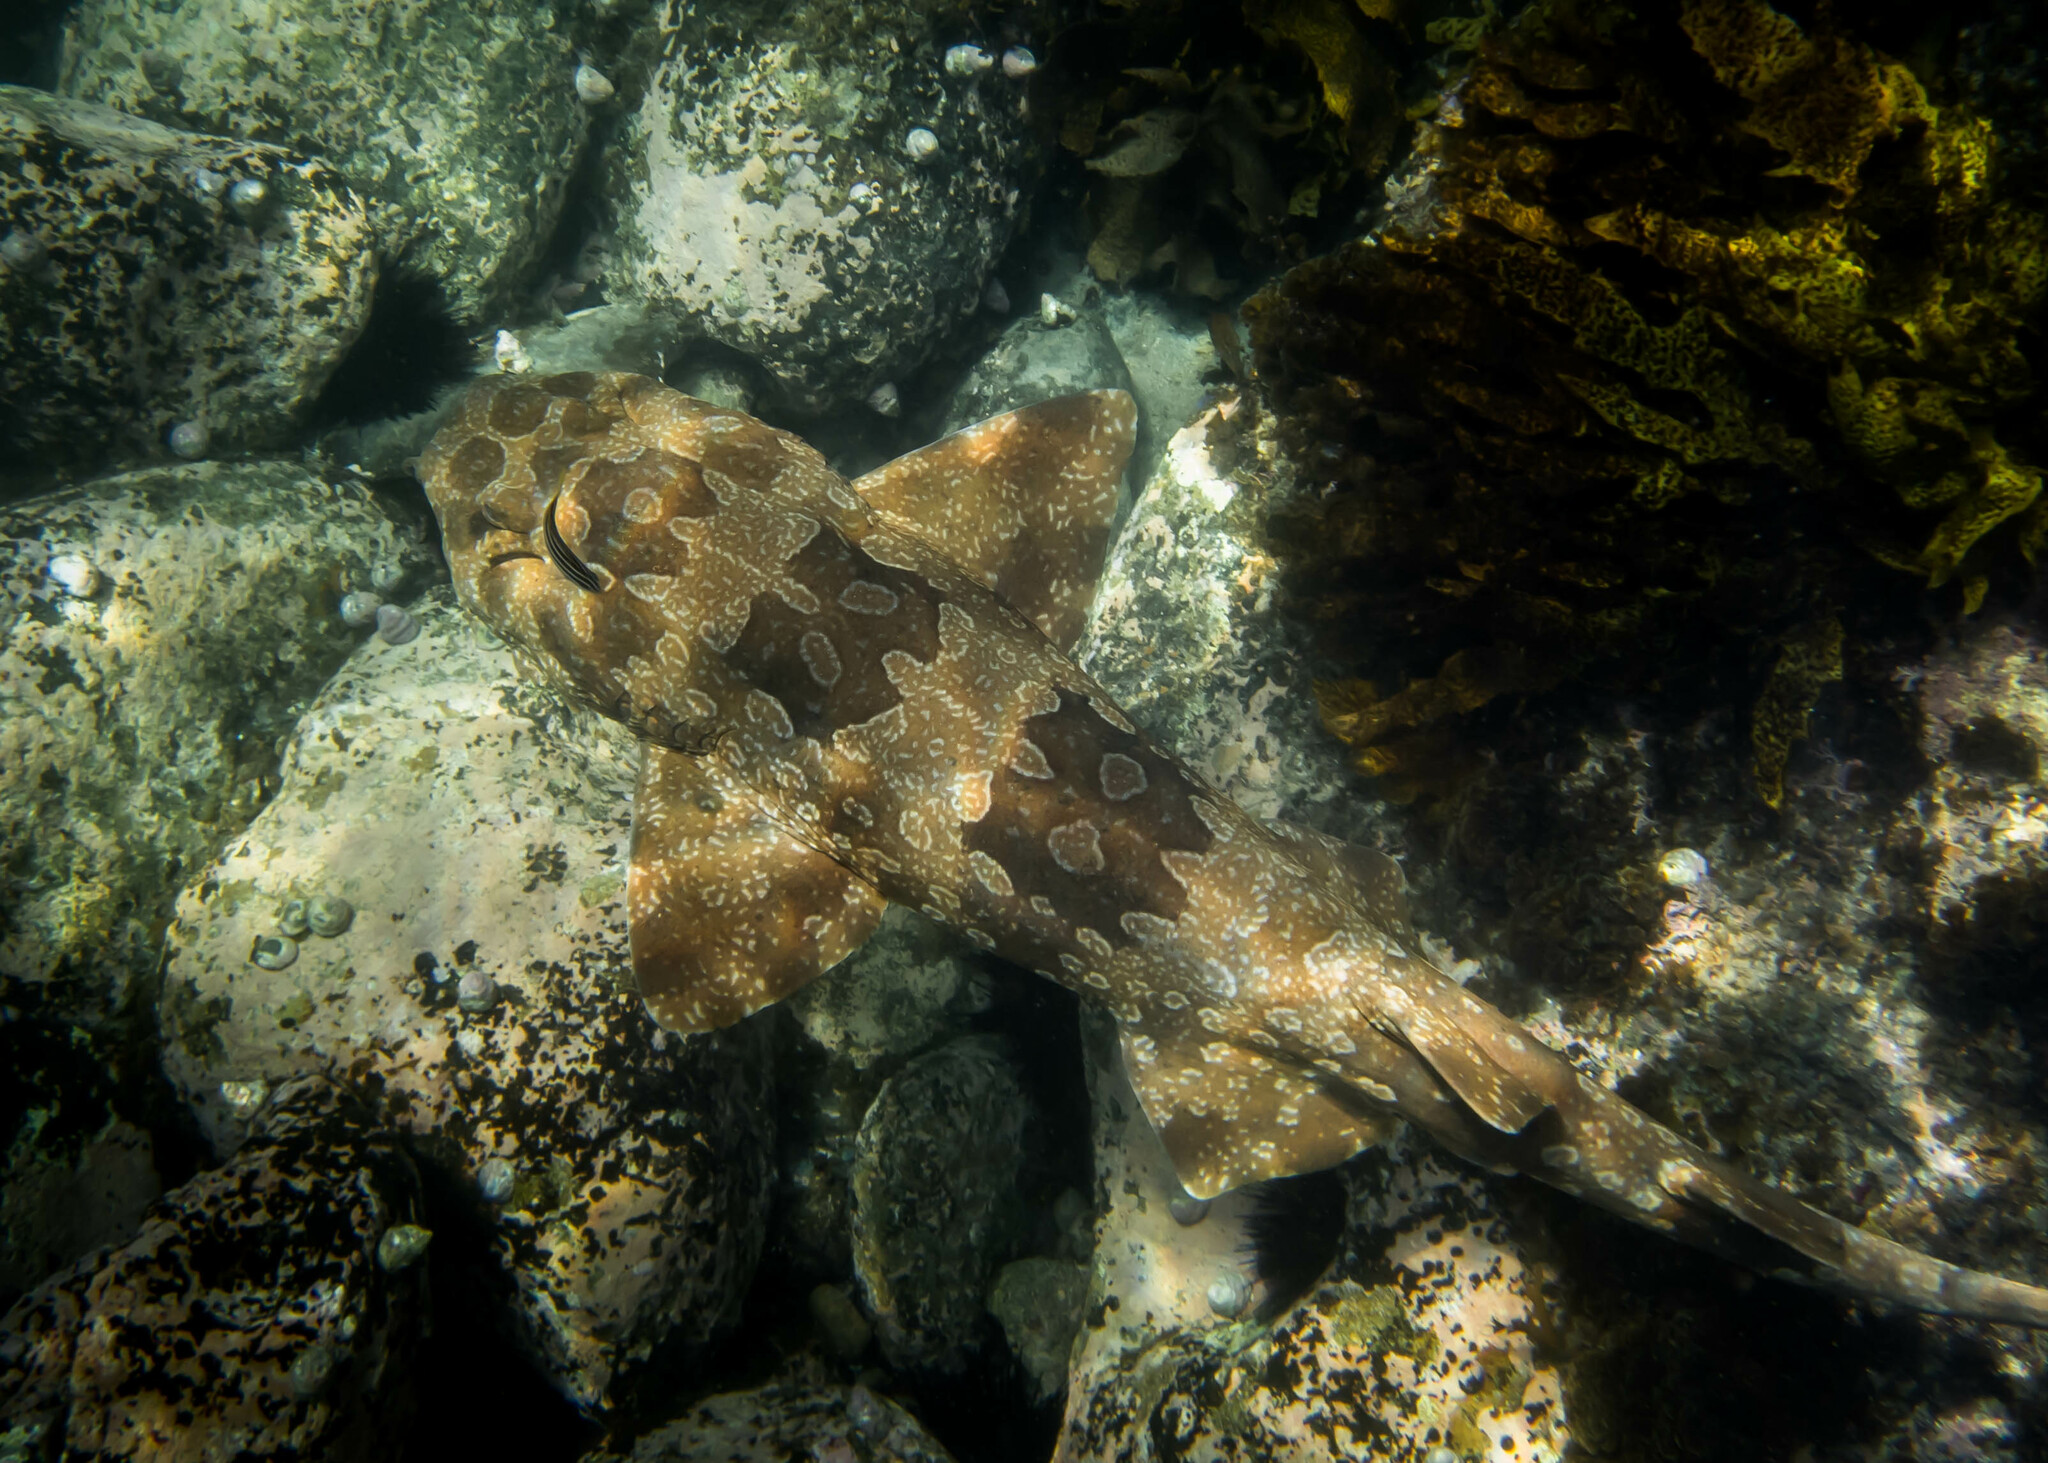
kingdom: Animalia
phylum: Chordata
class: Elasmobranchii
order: Orectolobiformes
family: Orectolobidae
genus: Orectolobus
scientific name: Orectolobus maculatus
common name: Spotted wobbegong
